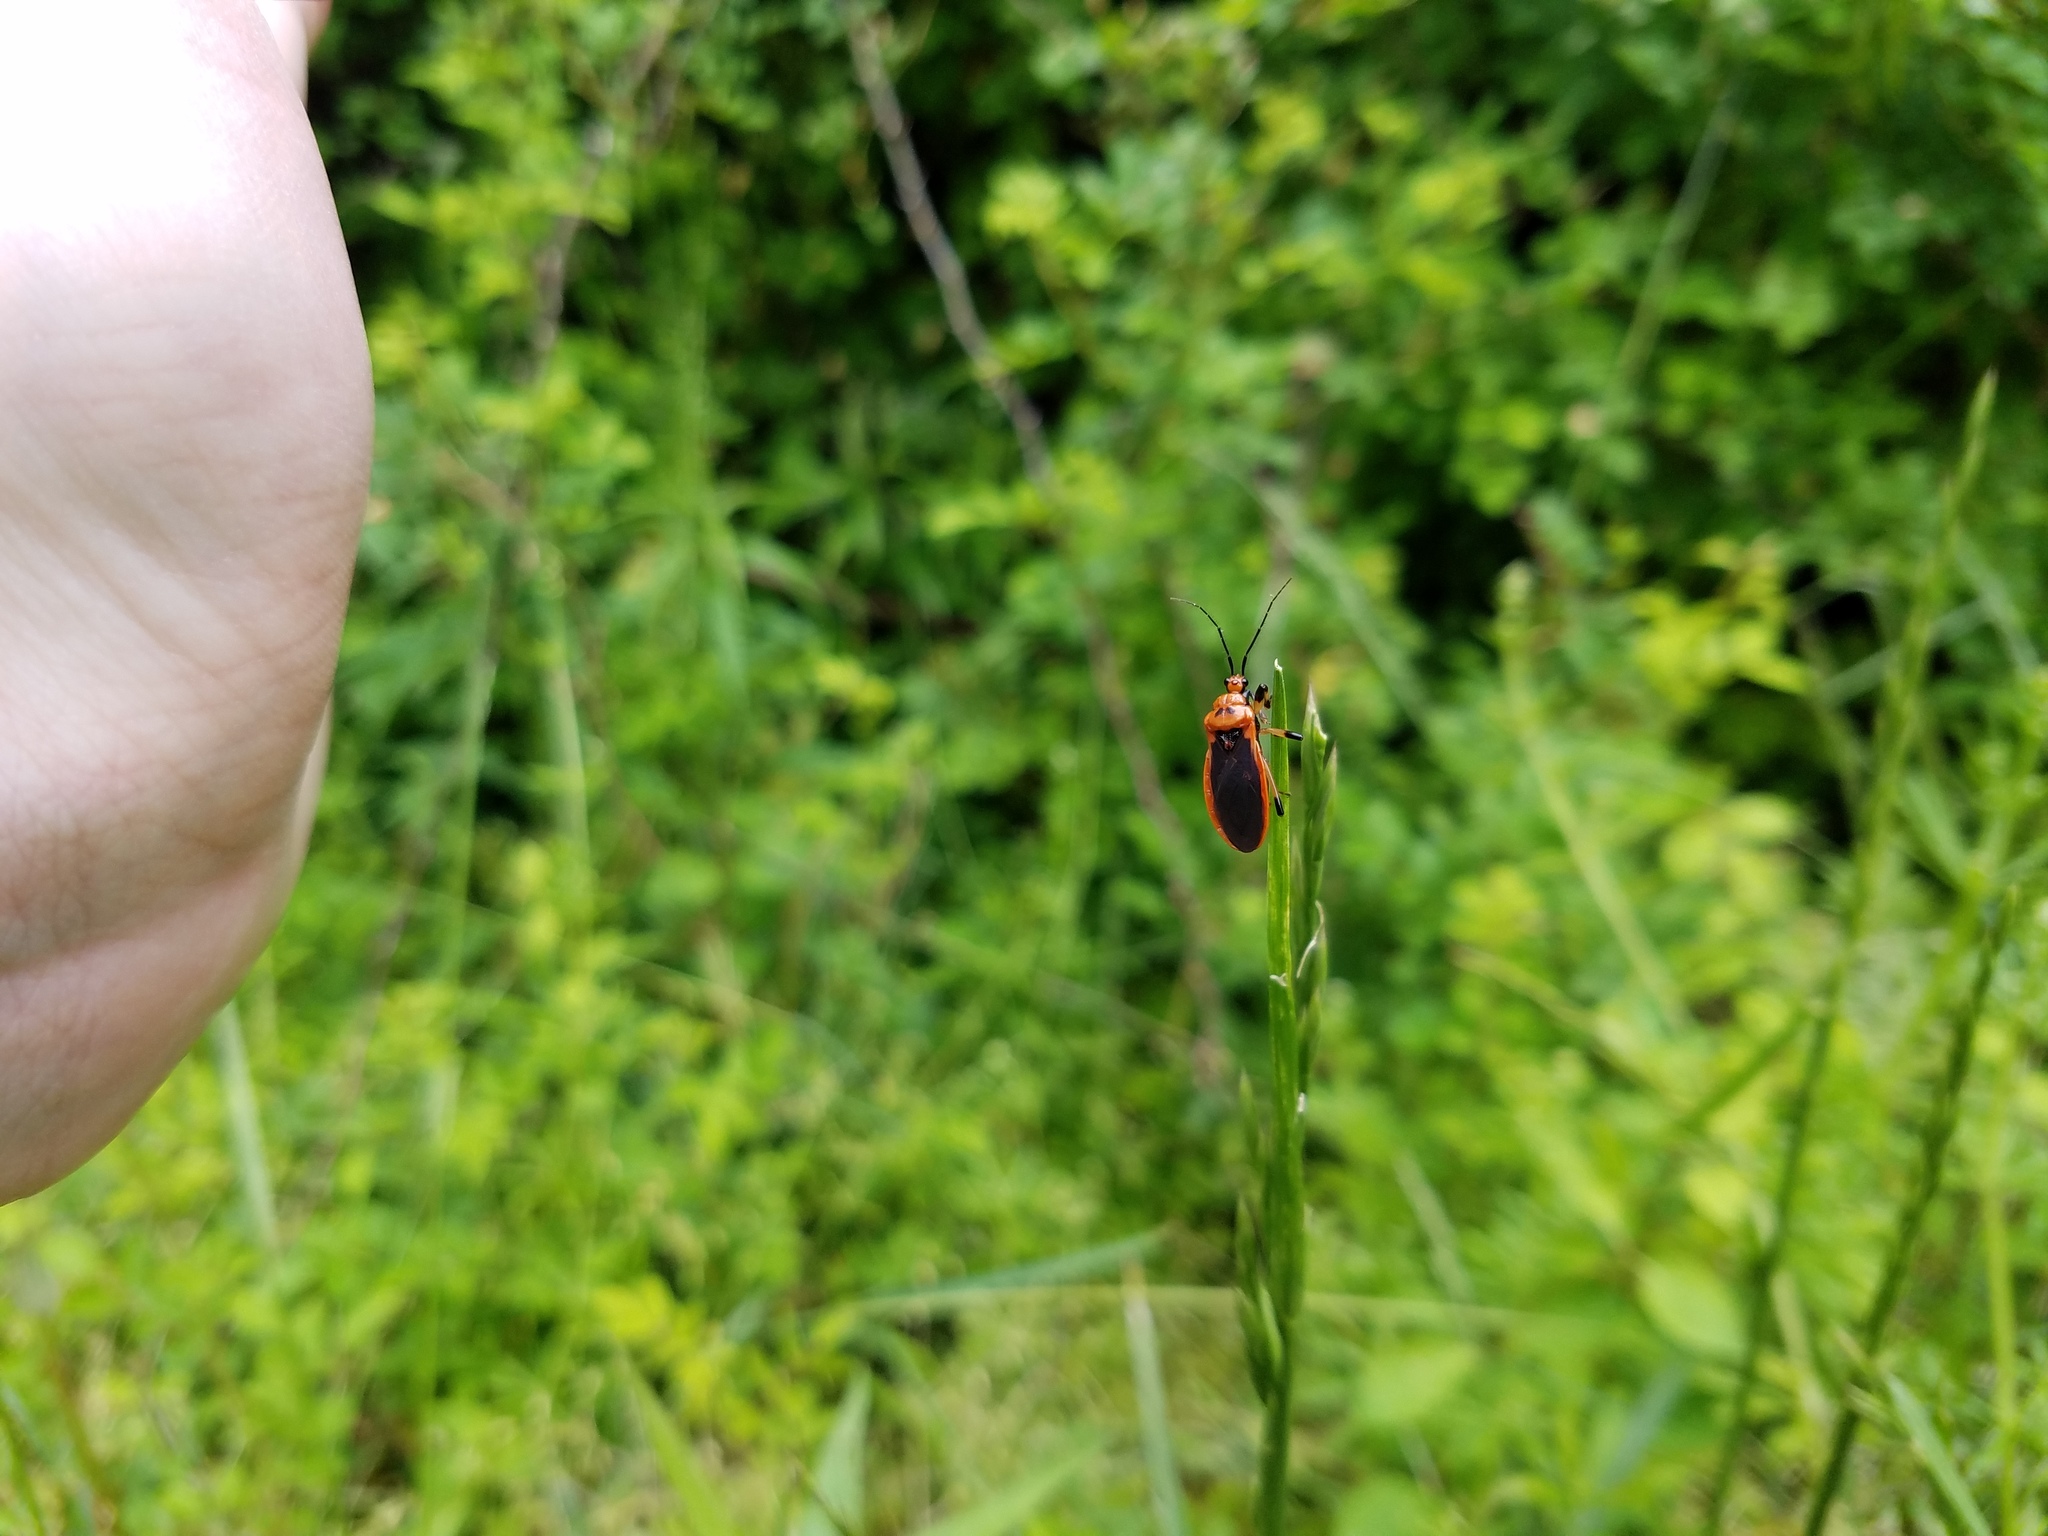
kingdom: Animalia
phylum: Arthropoda
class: Insecta
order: Hemiptera
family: Reduviidae
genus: Rhiginia
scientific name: Rhiginia cruciata
